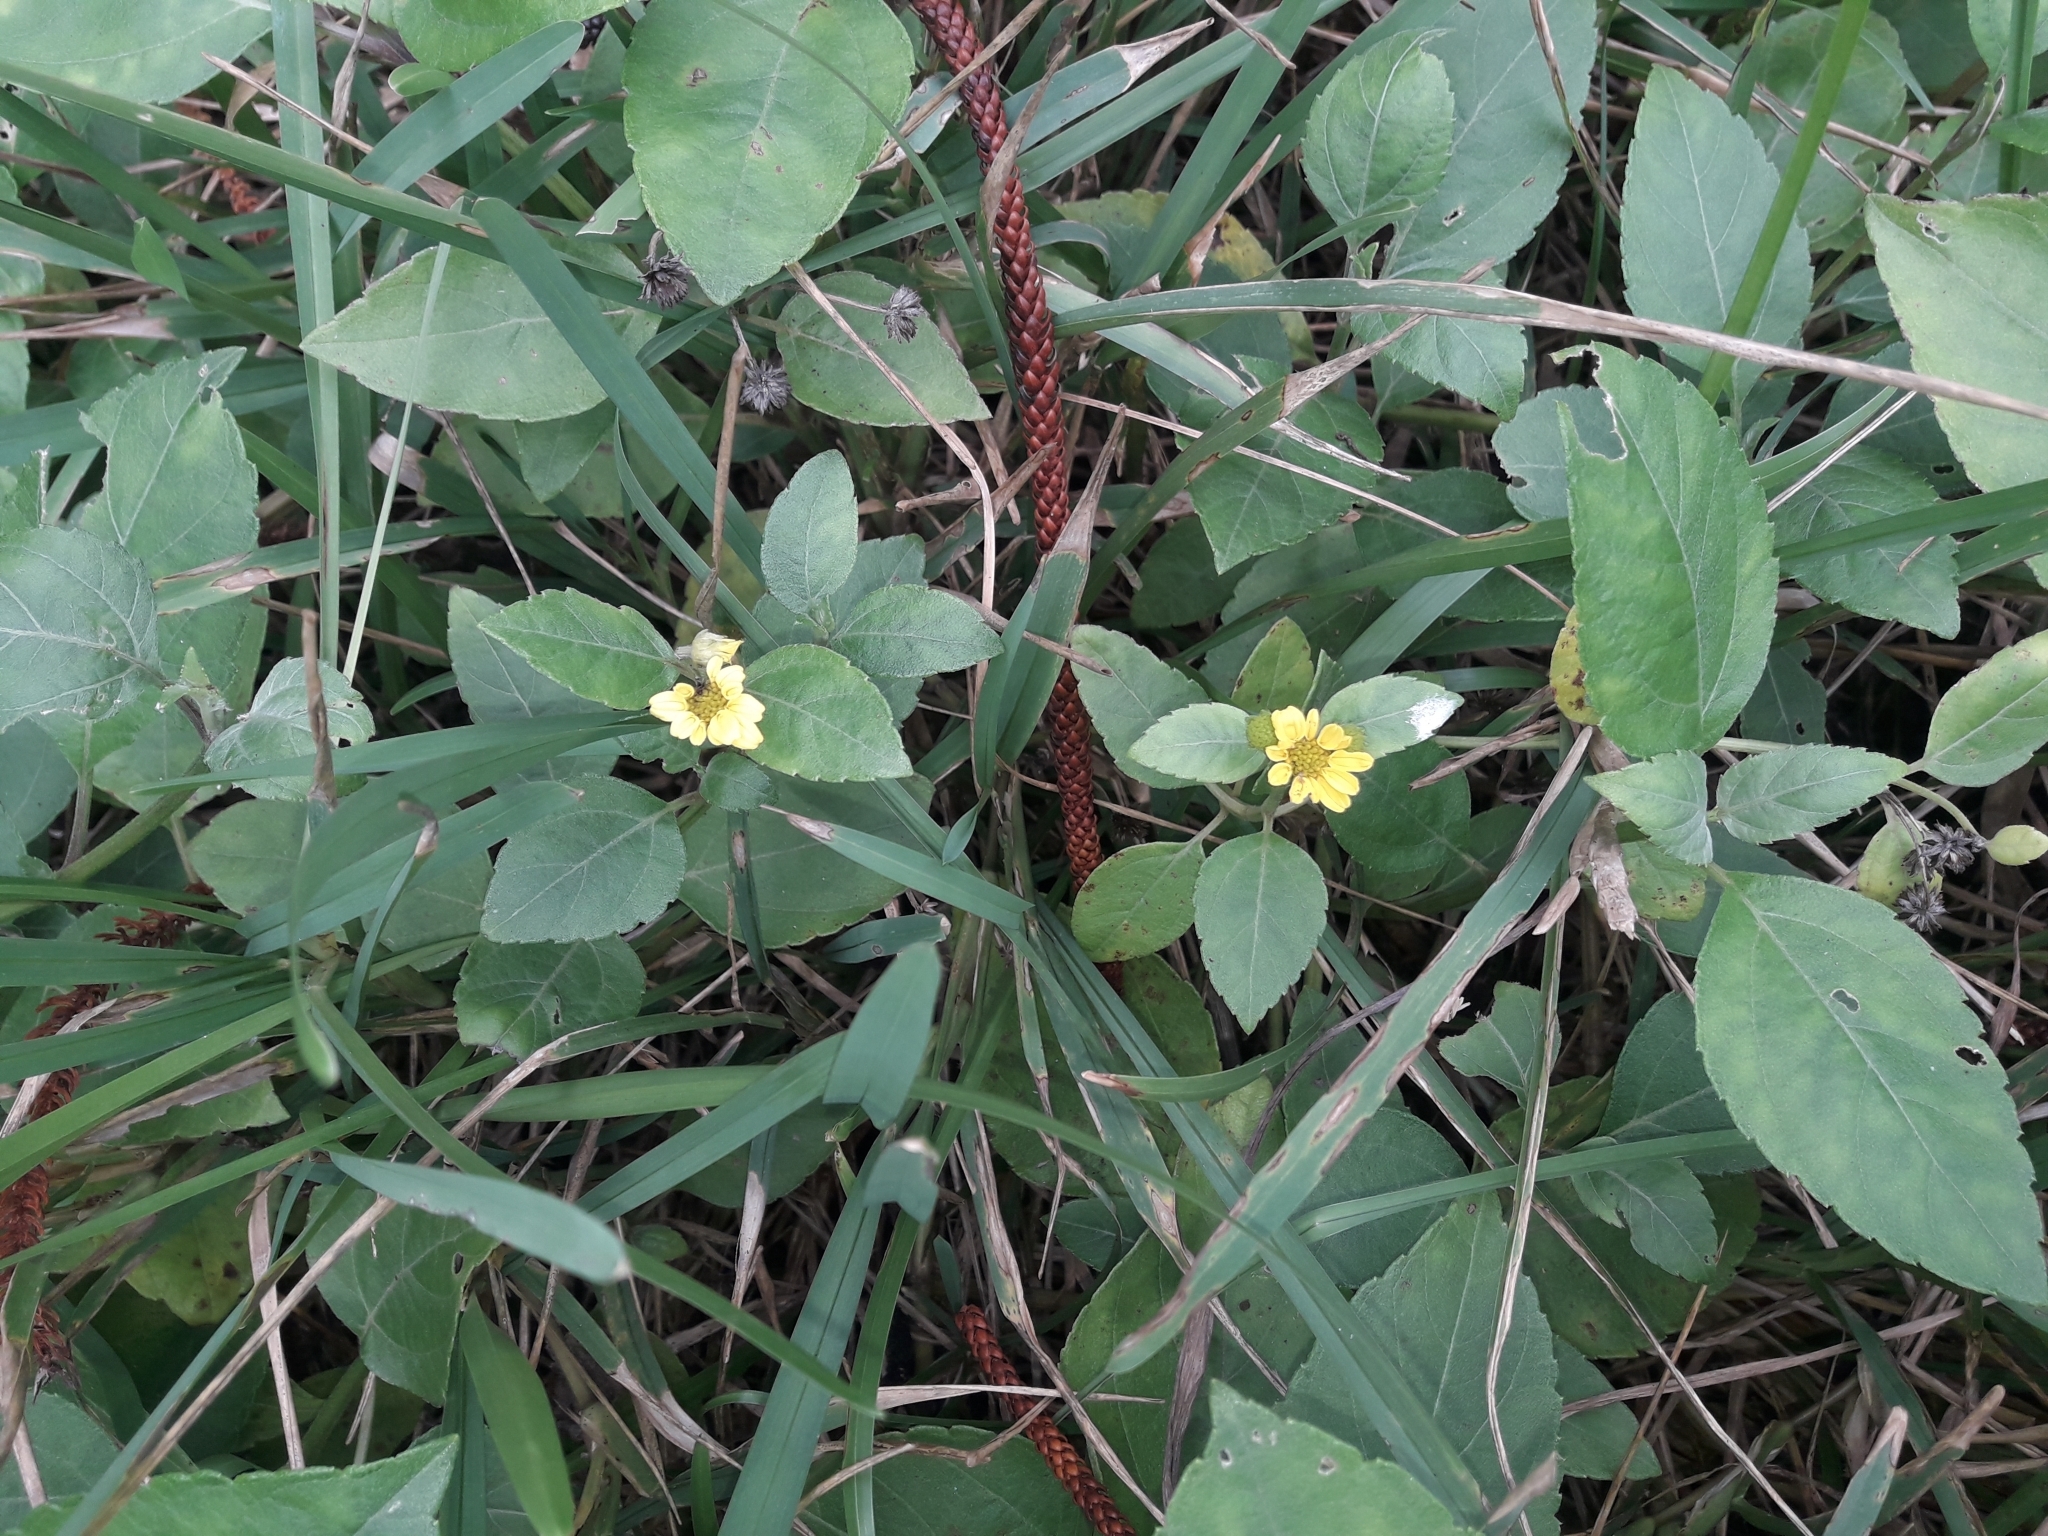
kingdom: Plantae
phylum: Tracheophyta
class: Magnoliopsida
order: Asterales
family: Asteraceae
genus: Wollastonia
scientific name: Wollastonia uniflora
